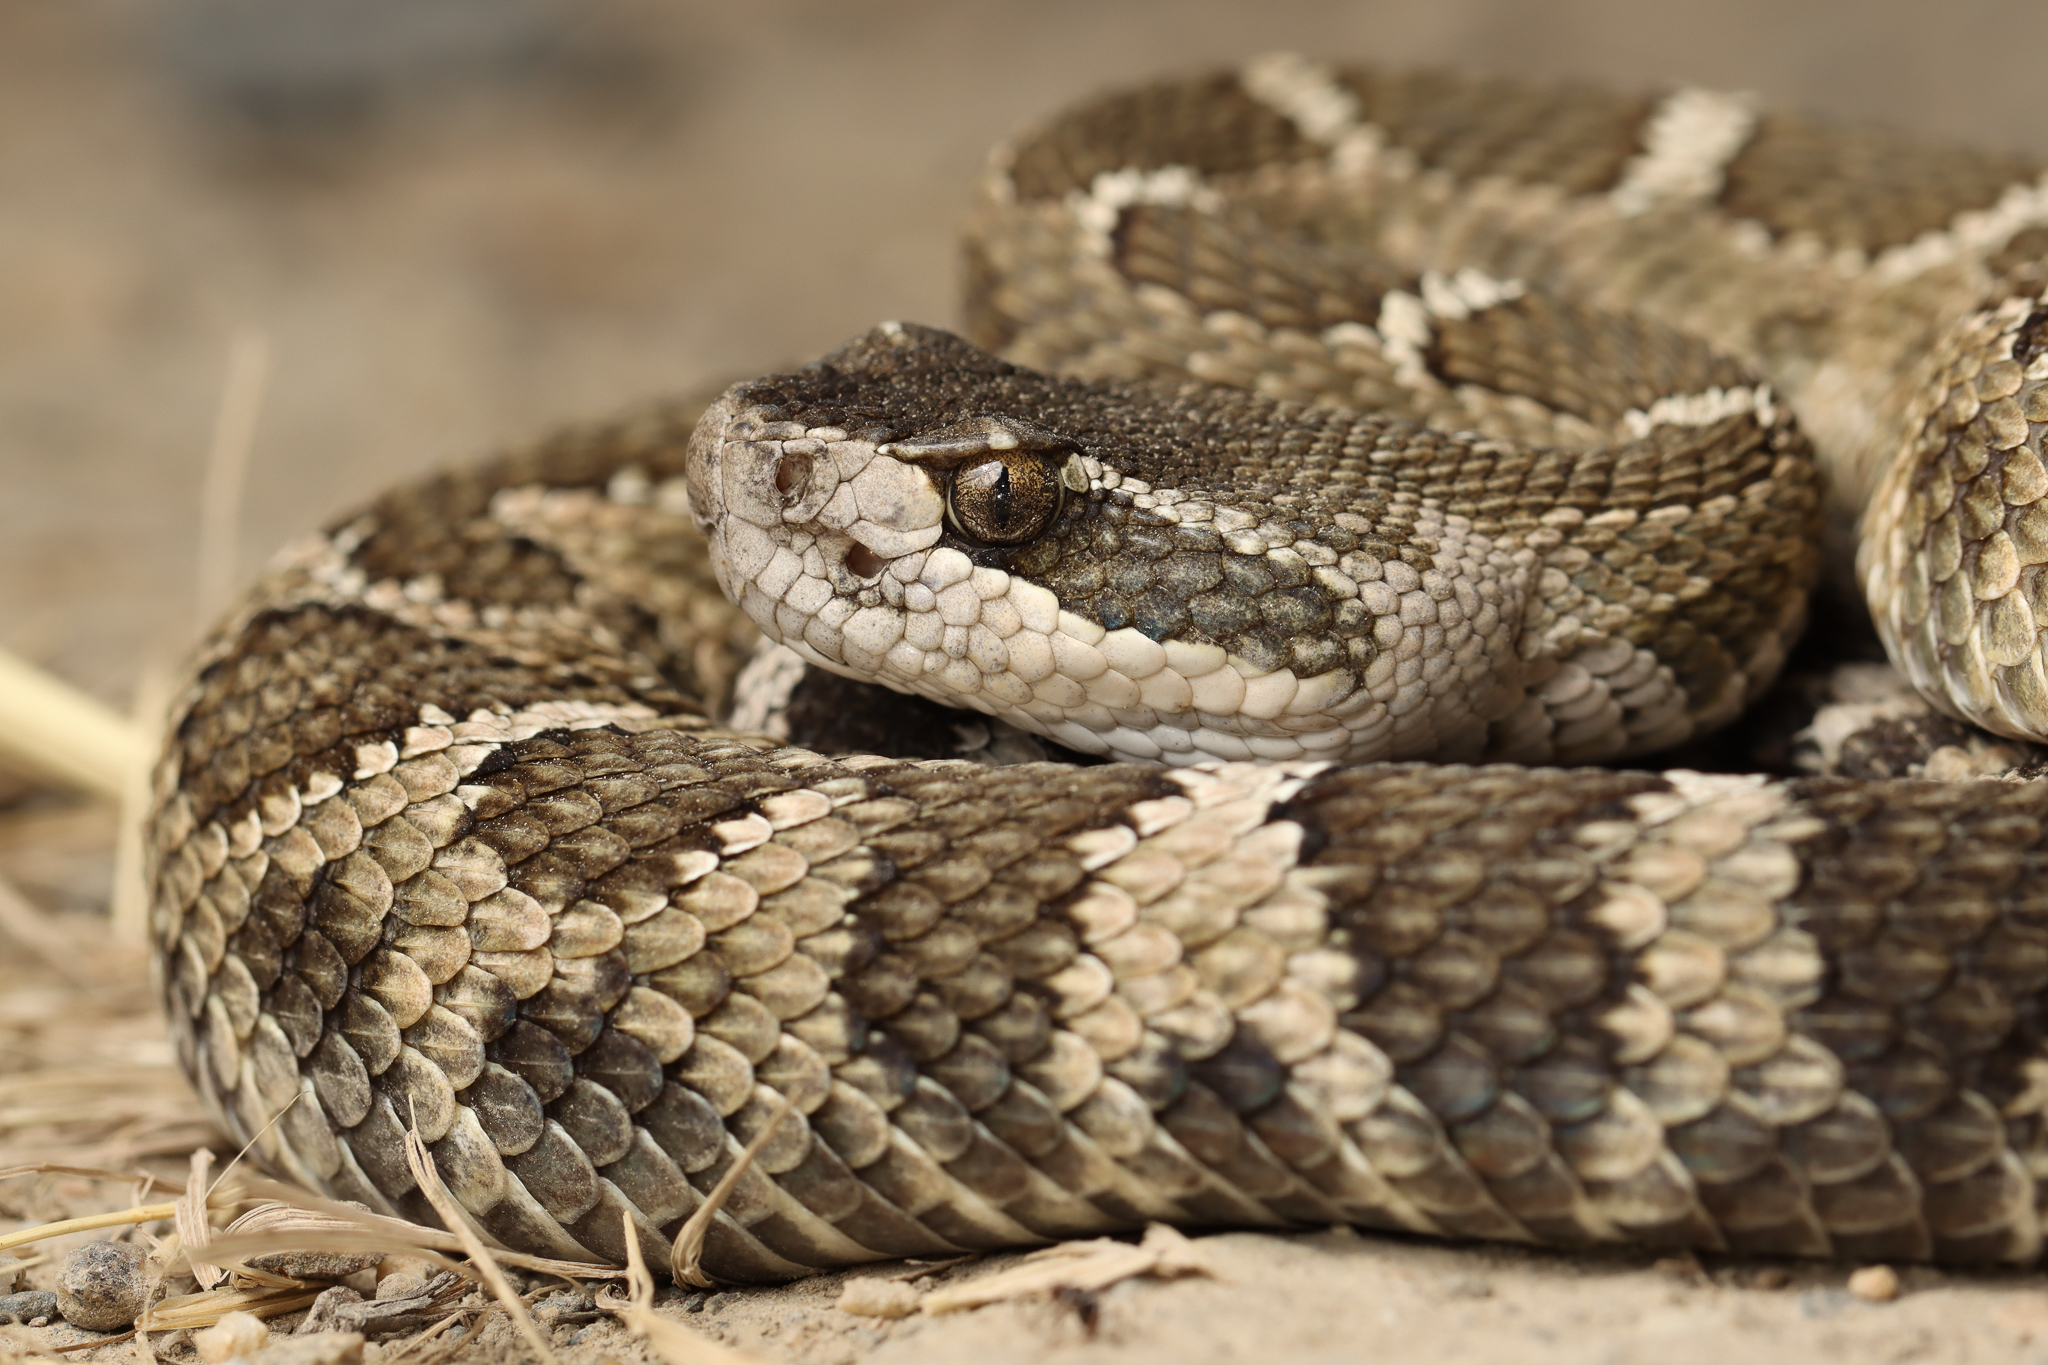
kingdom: Animalia
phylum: Chordata
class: Squamata
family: Viperidae
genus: Crotalus
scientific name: Crotalus oreganus
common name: Abyssus
